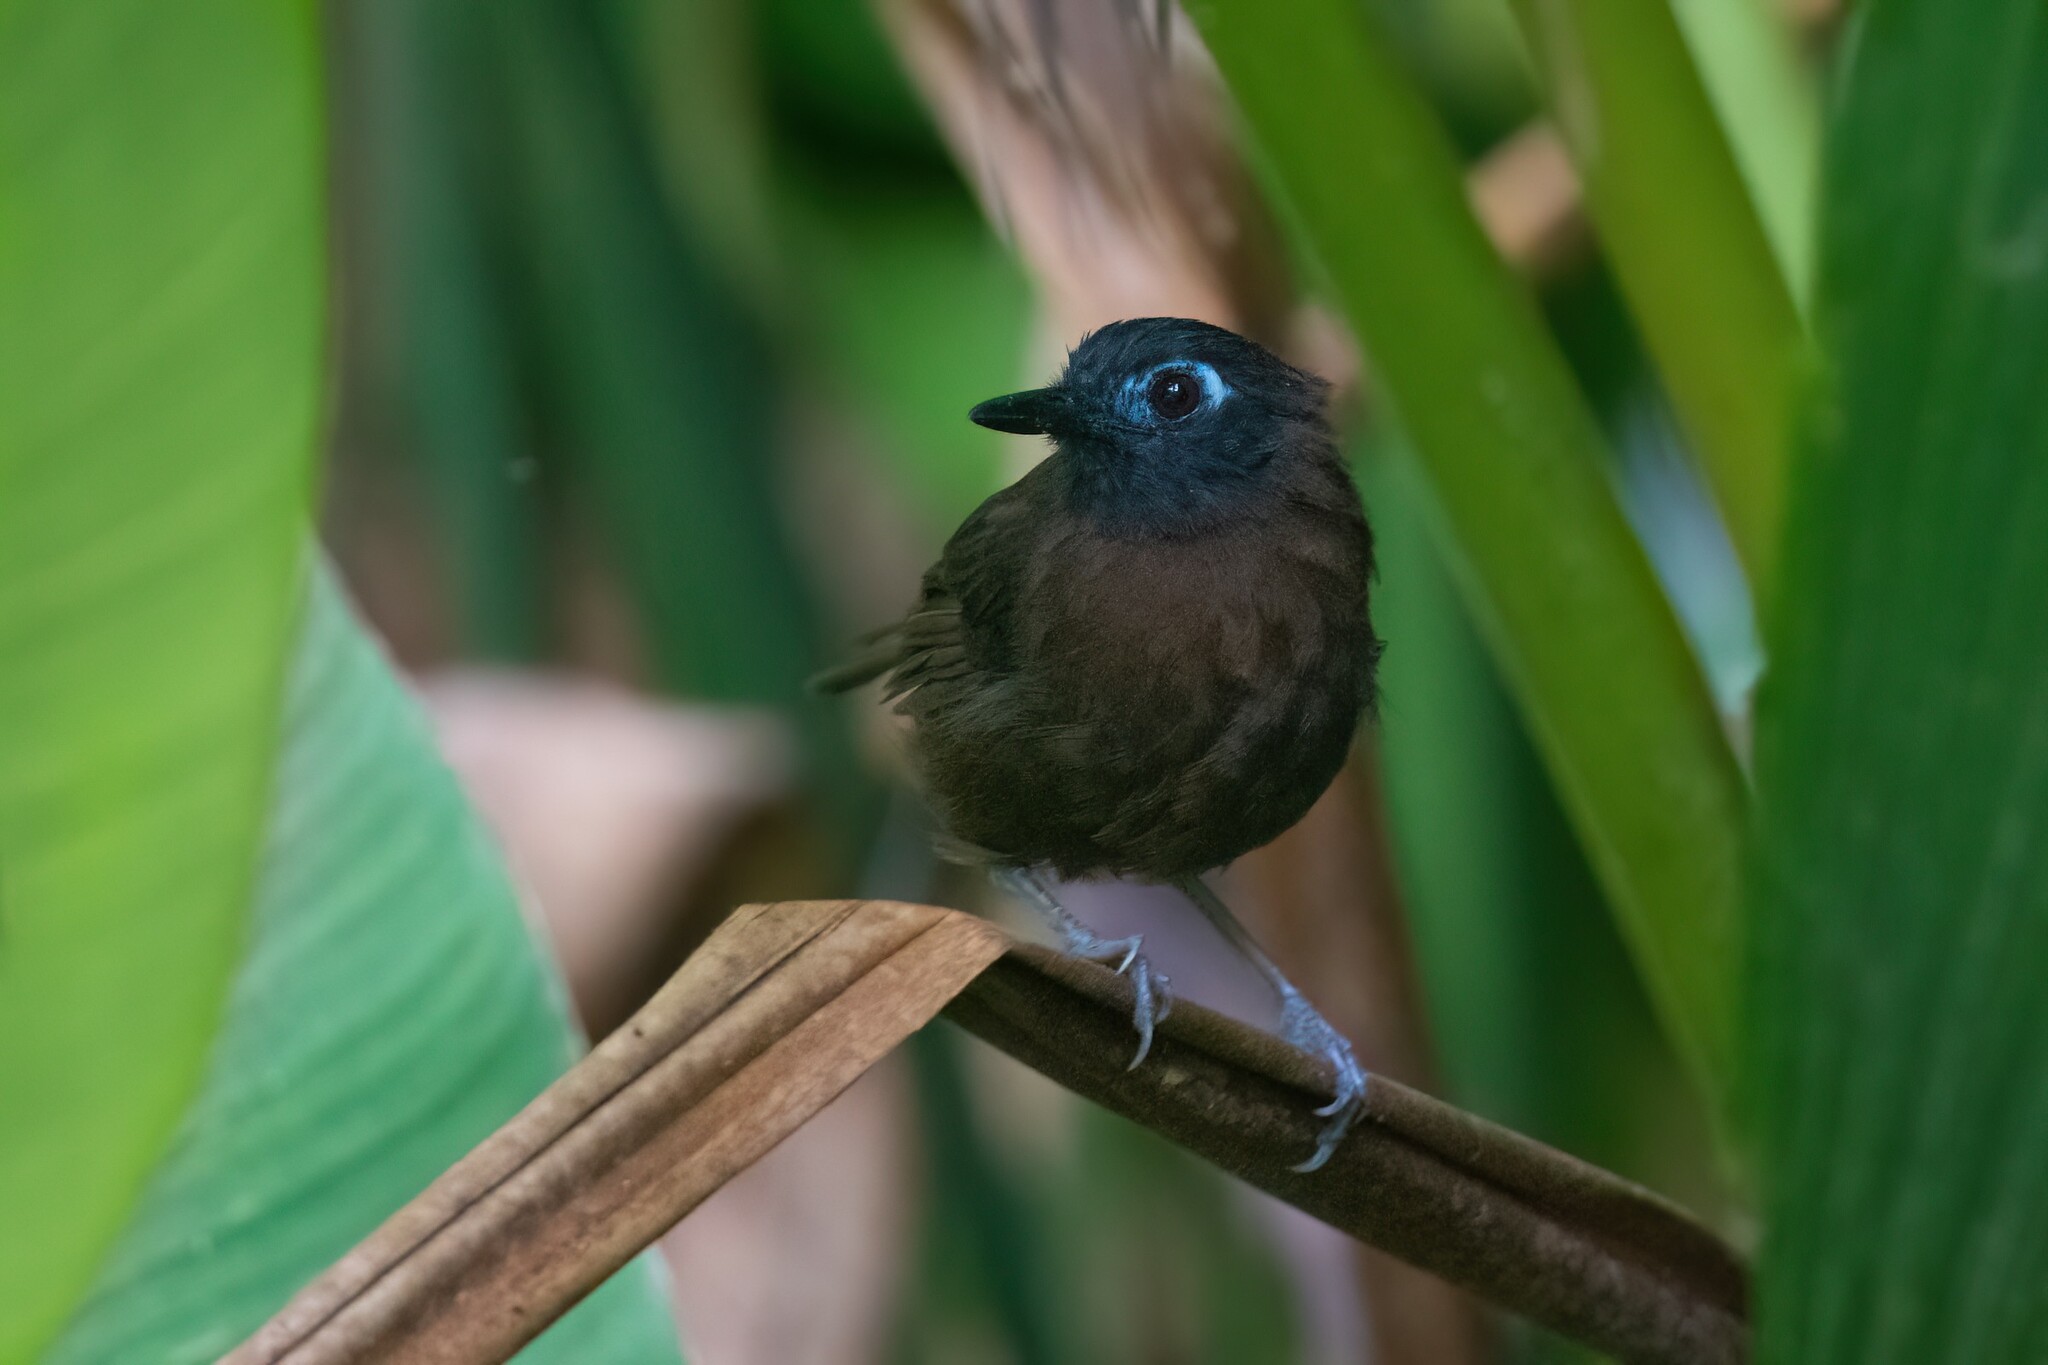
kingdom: Animalia
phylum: Chordata
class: Aves
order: Passeriformes
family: Thamnophilidae
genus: Myrmeciza
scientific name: Myrmeciza exsul
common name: Chestnut-backed antbird
